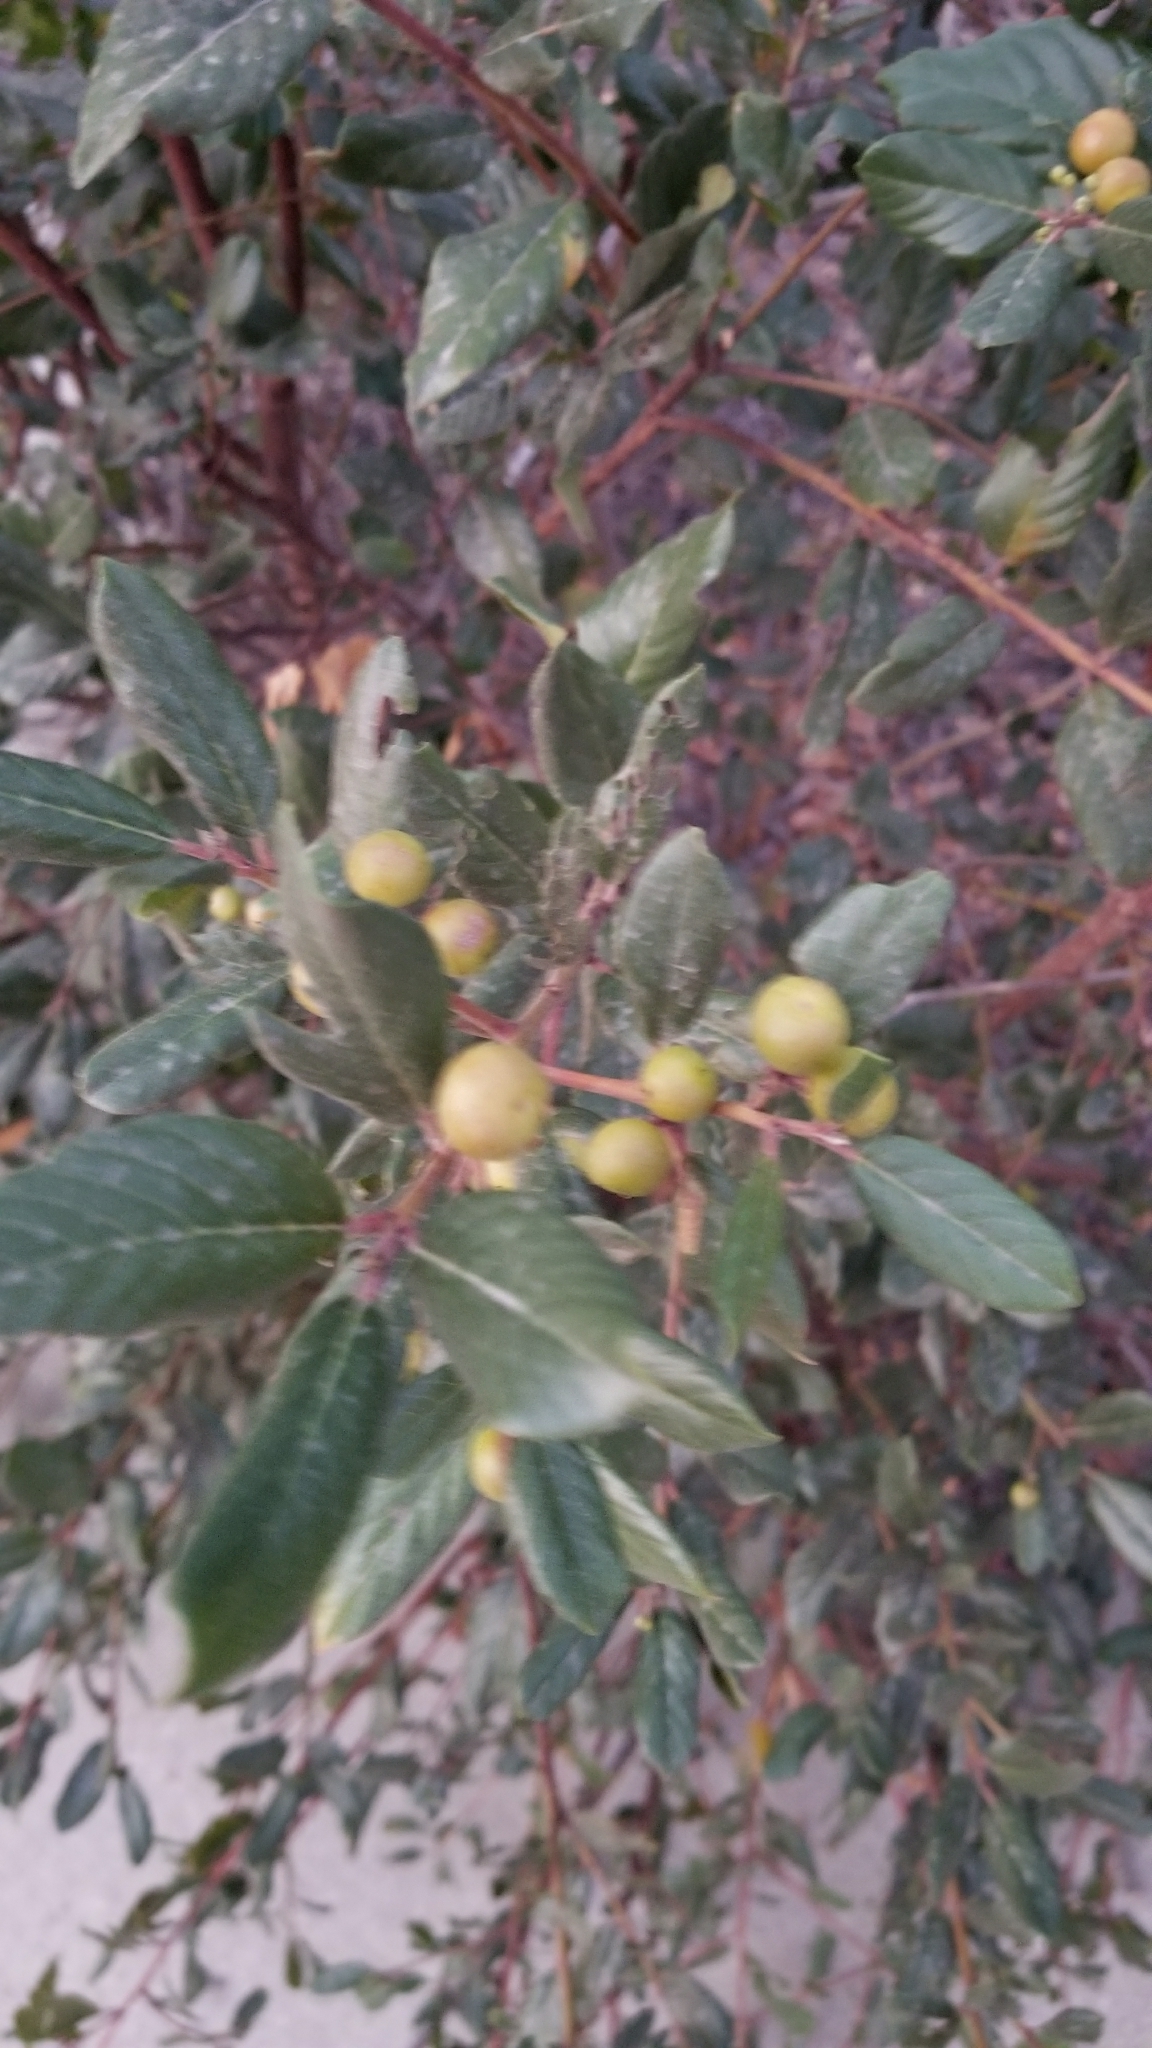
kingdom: Plantae
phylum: Tracheophyta
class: Magnoliopsida
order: Rosales
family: Rhamnaceae
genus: Frangula
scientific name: Frangula californica
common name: California buckthorn
